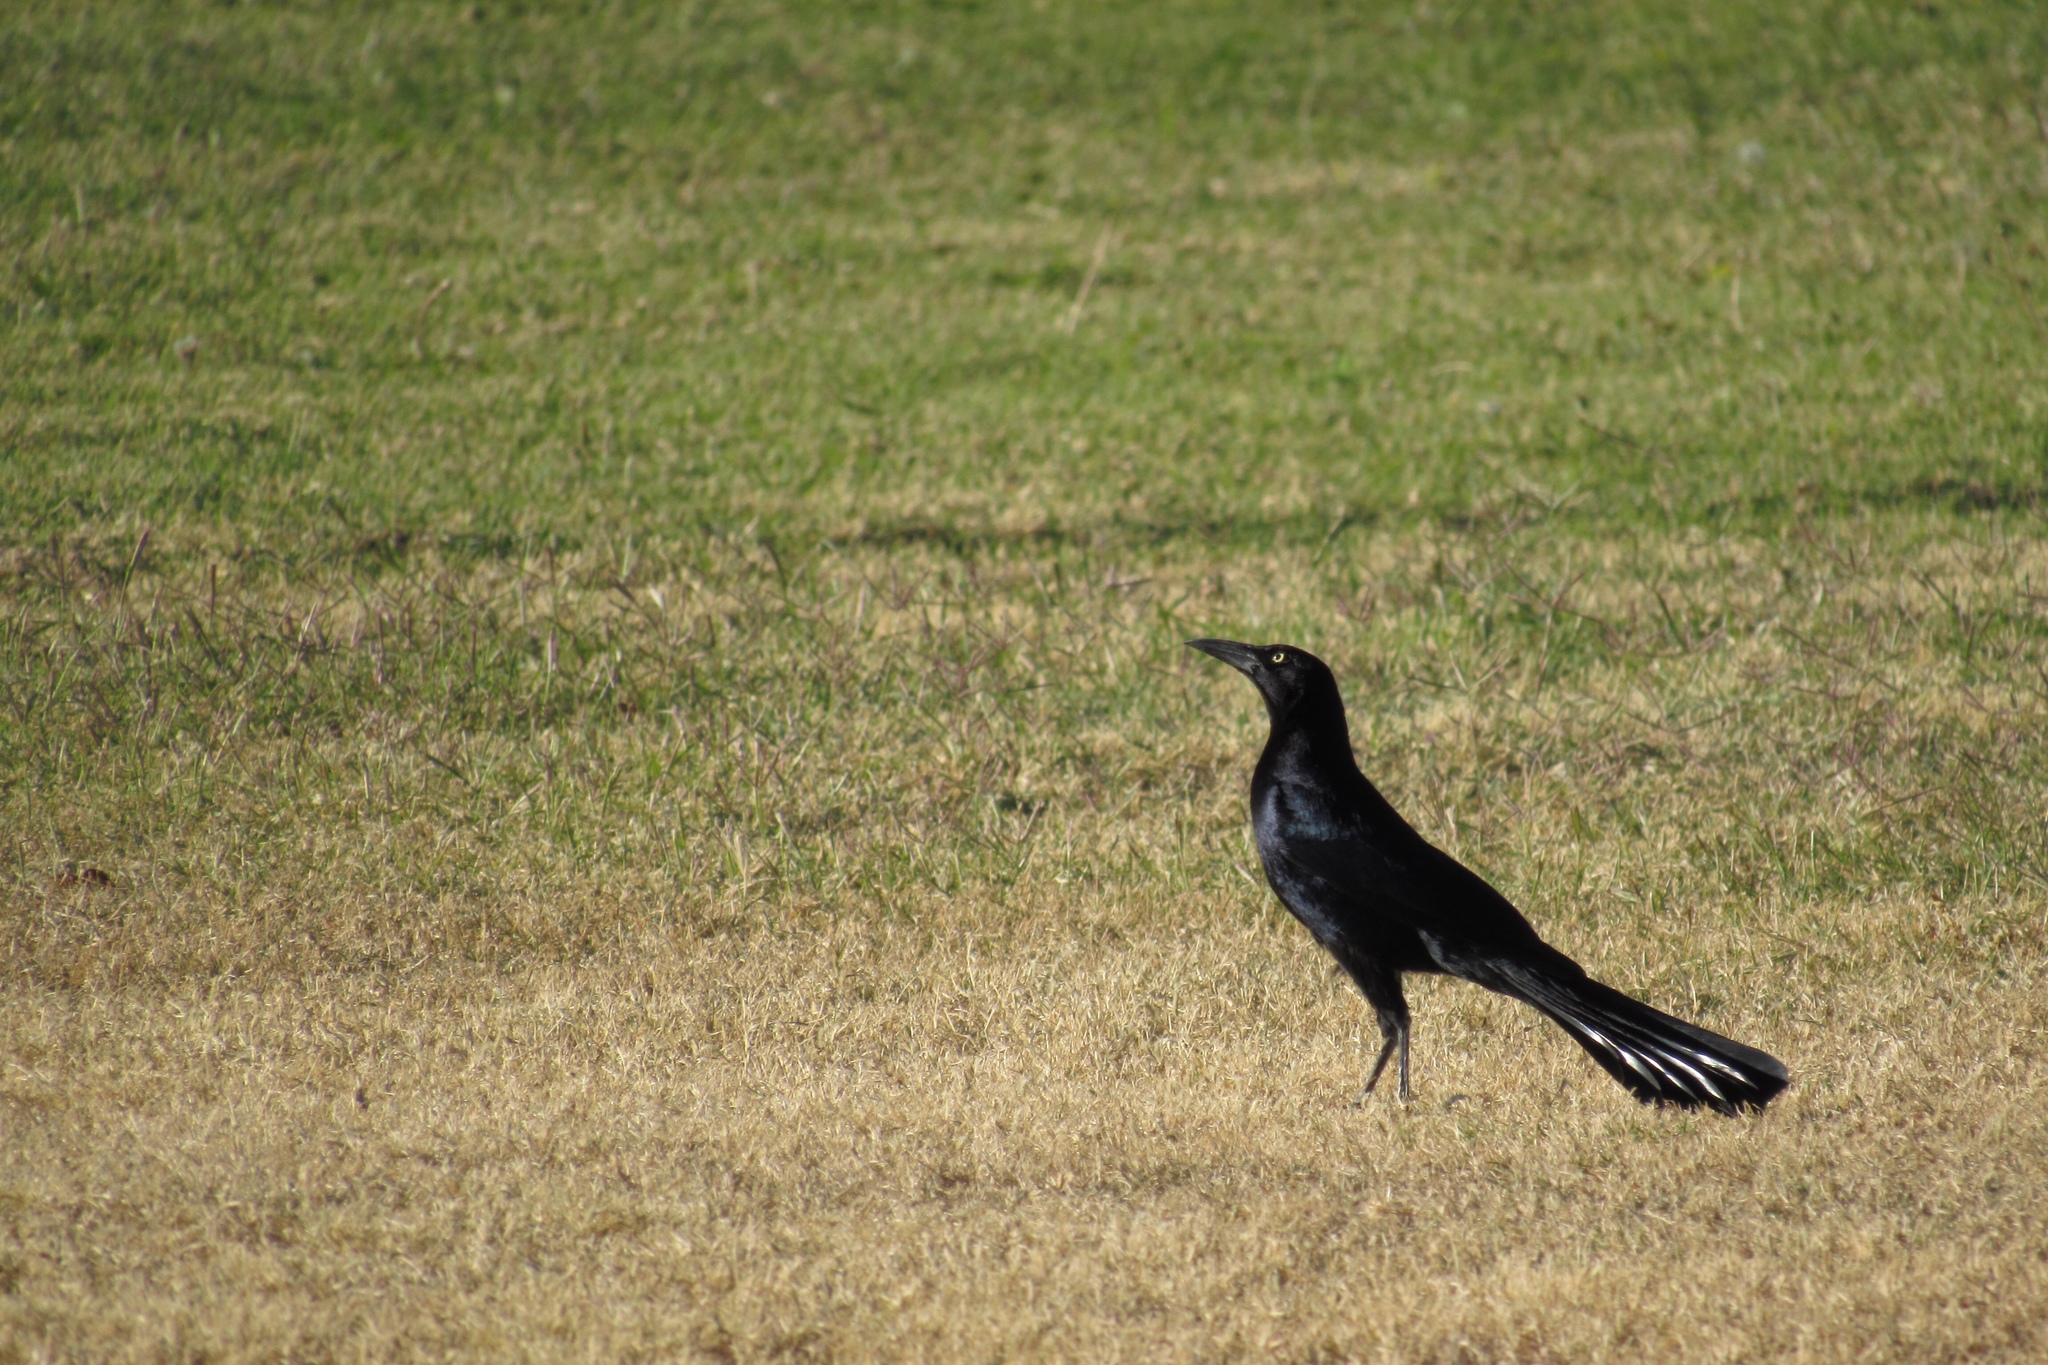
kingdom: Animalia
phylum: Chordata
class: Aves
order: Passeriformes
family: Icteridae
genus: Quiscalus
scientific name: Quiscalus mexicanus
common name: Great-tailed grackle
